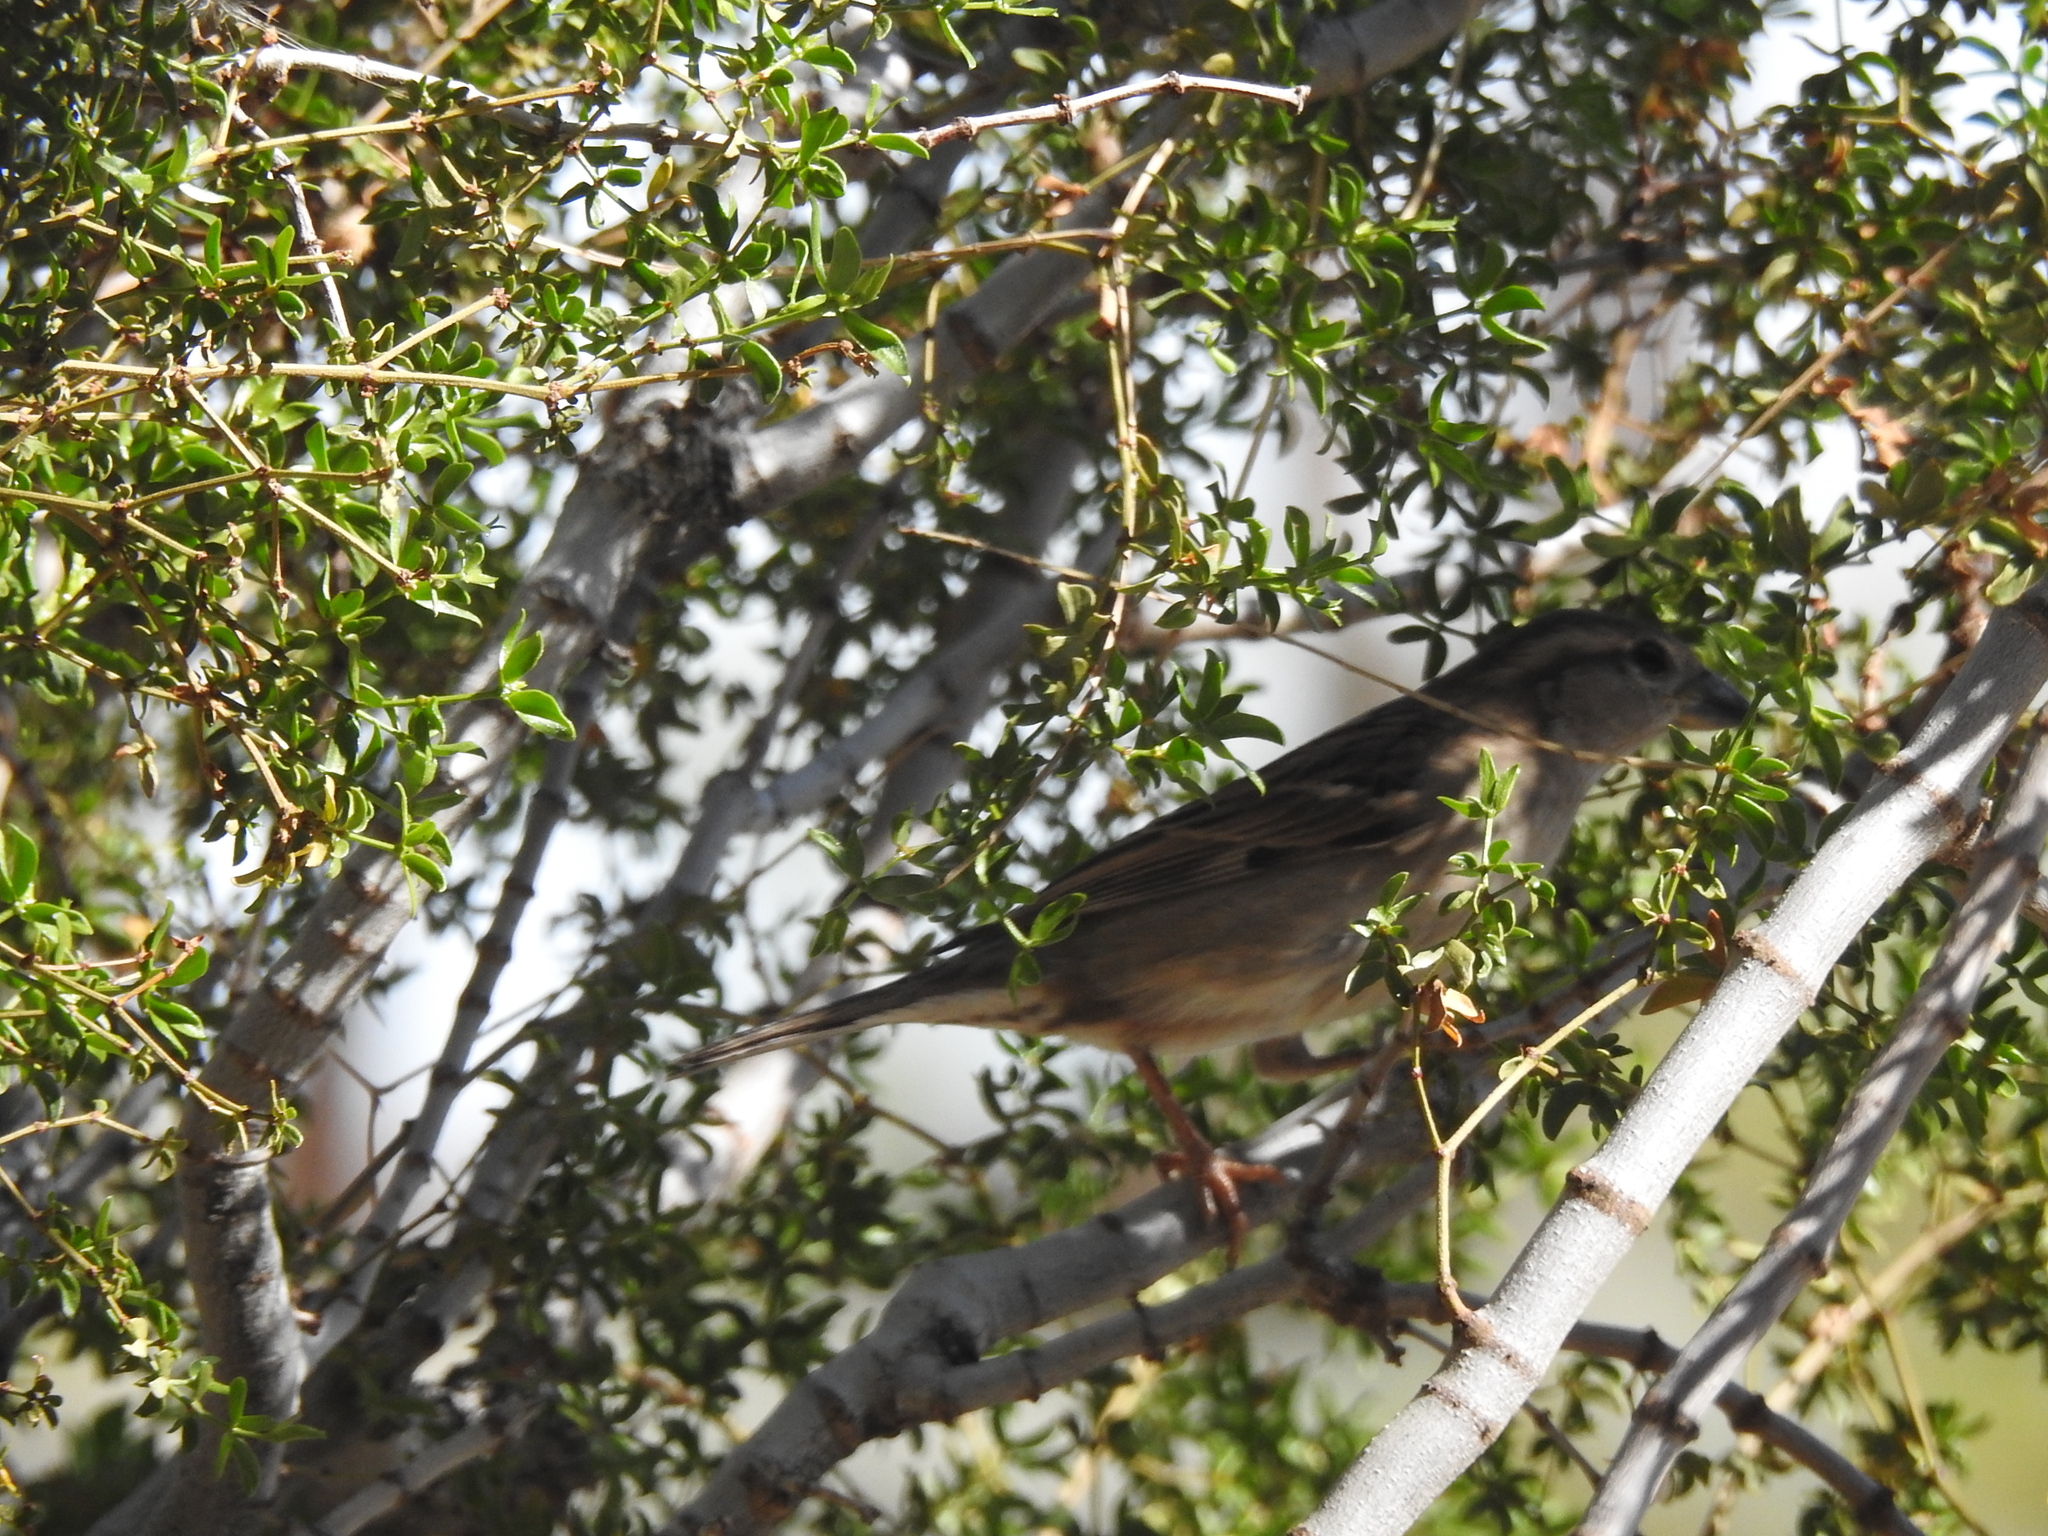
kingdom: Animalia
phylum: Chordata
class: Aves
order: Passeriformes
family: Passeridae
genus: Passer
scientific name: Passer domesticus
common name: House sparrow
